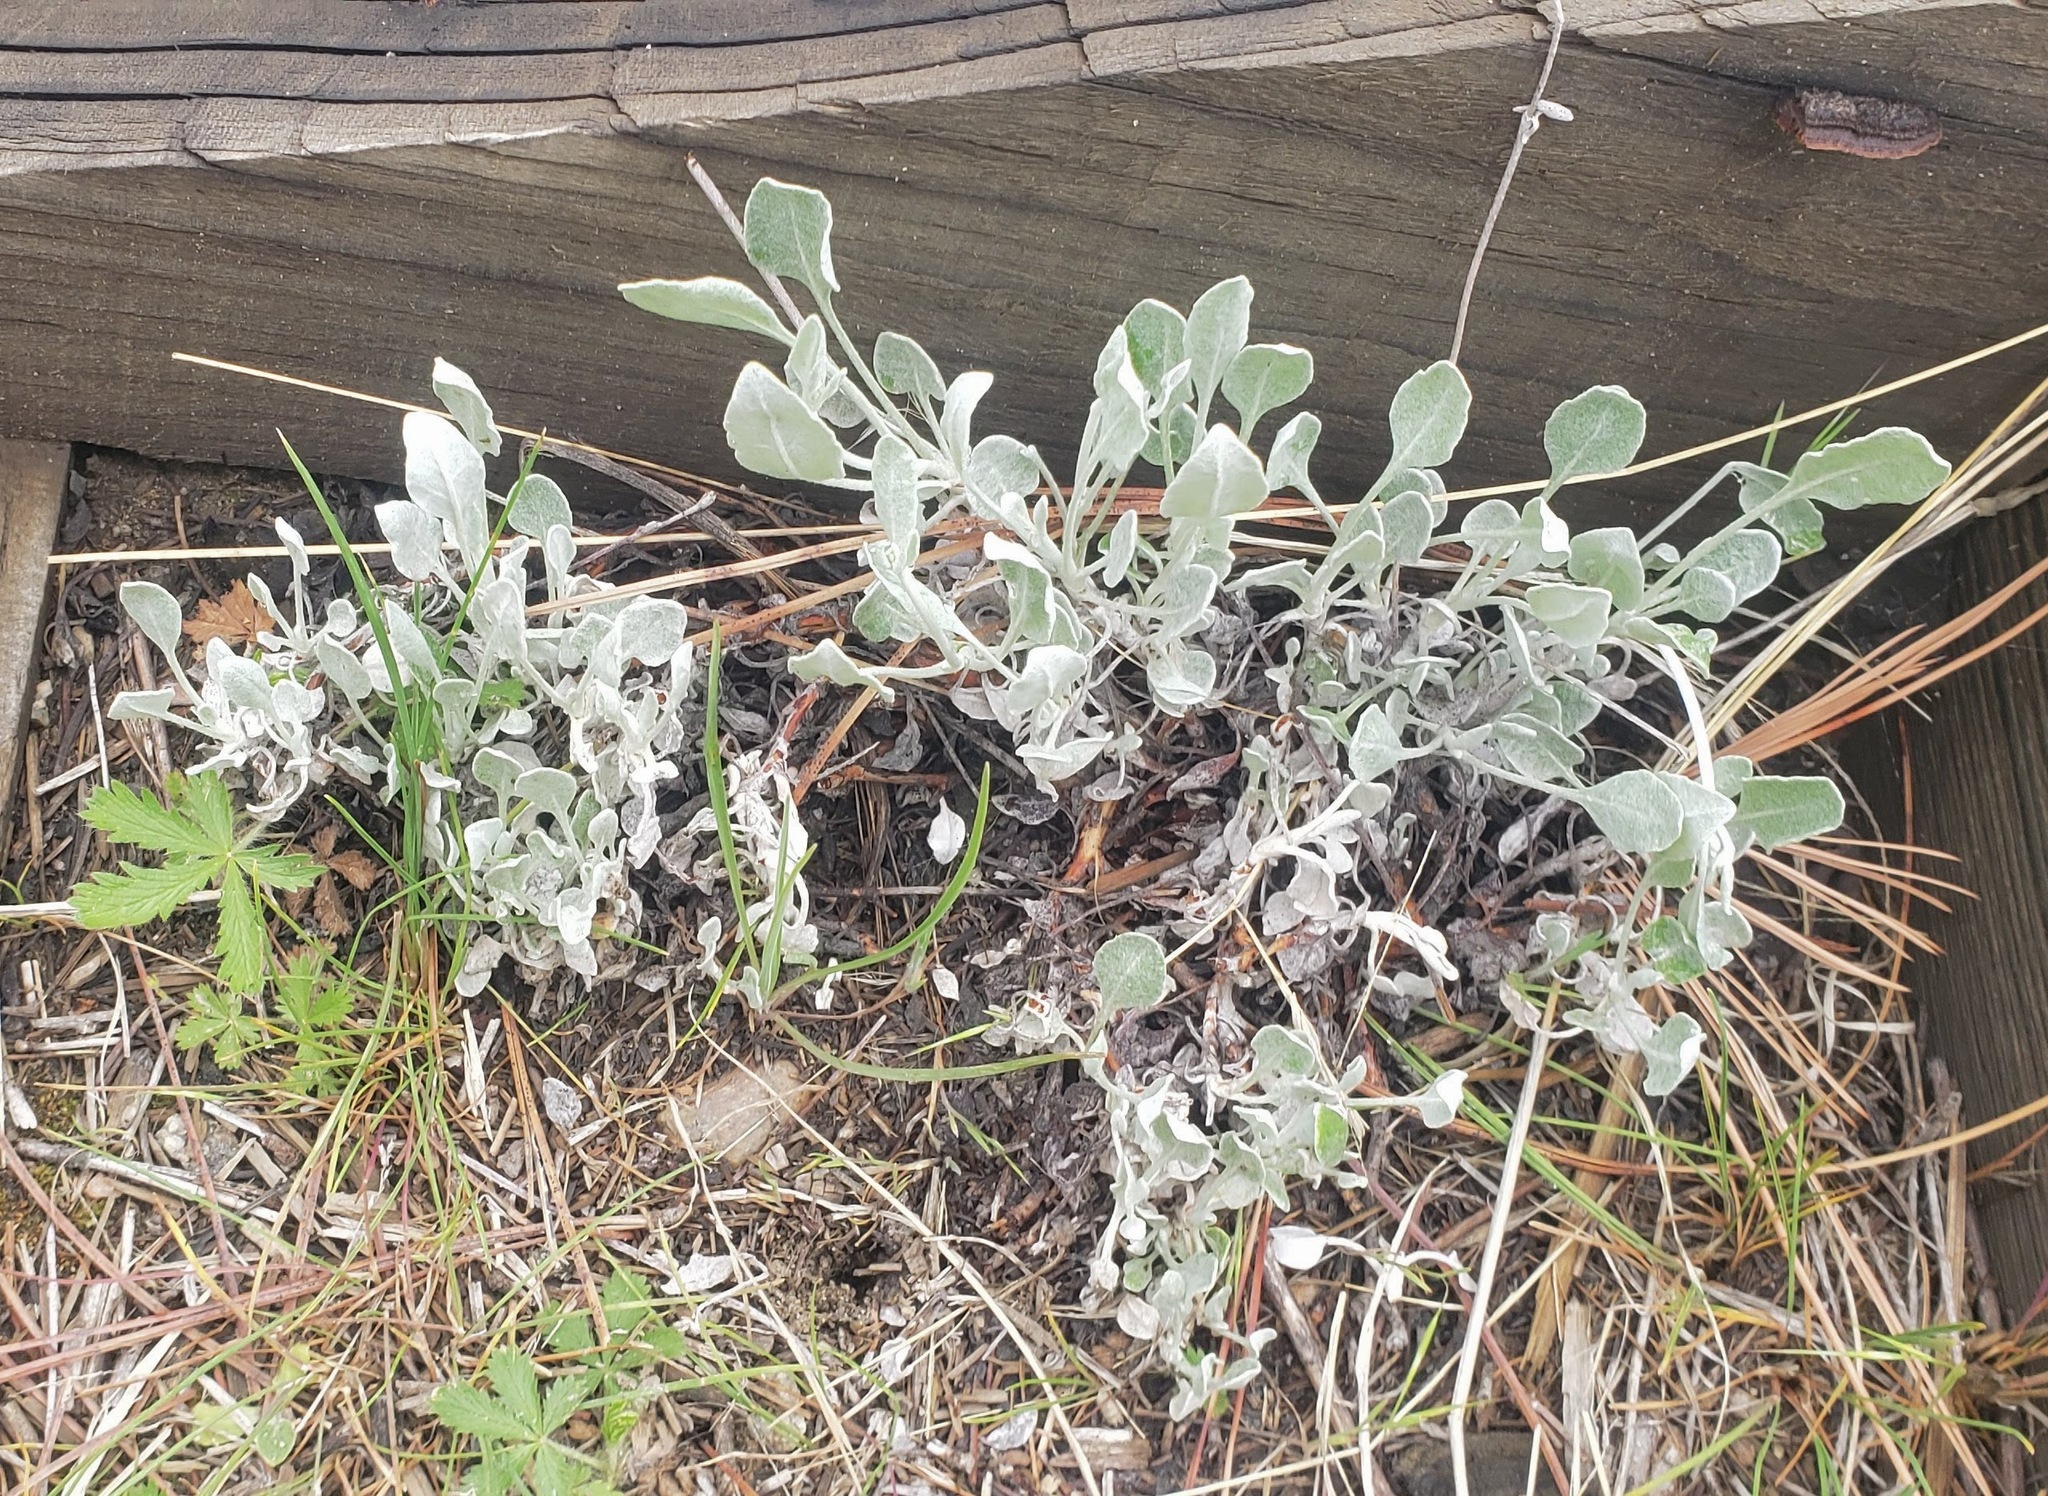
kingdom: Plantae
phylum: Tracheophyta
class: Magnoliopsida
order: Caryophyllales
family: Polygonaceae
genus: Eriogonum
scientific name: Eriogonum niveum
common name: Snow wild buckwheat
